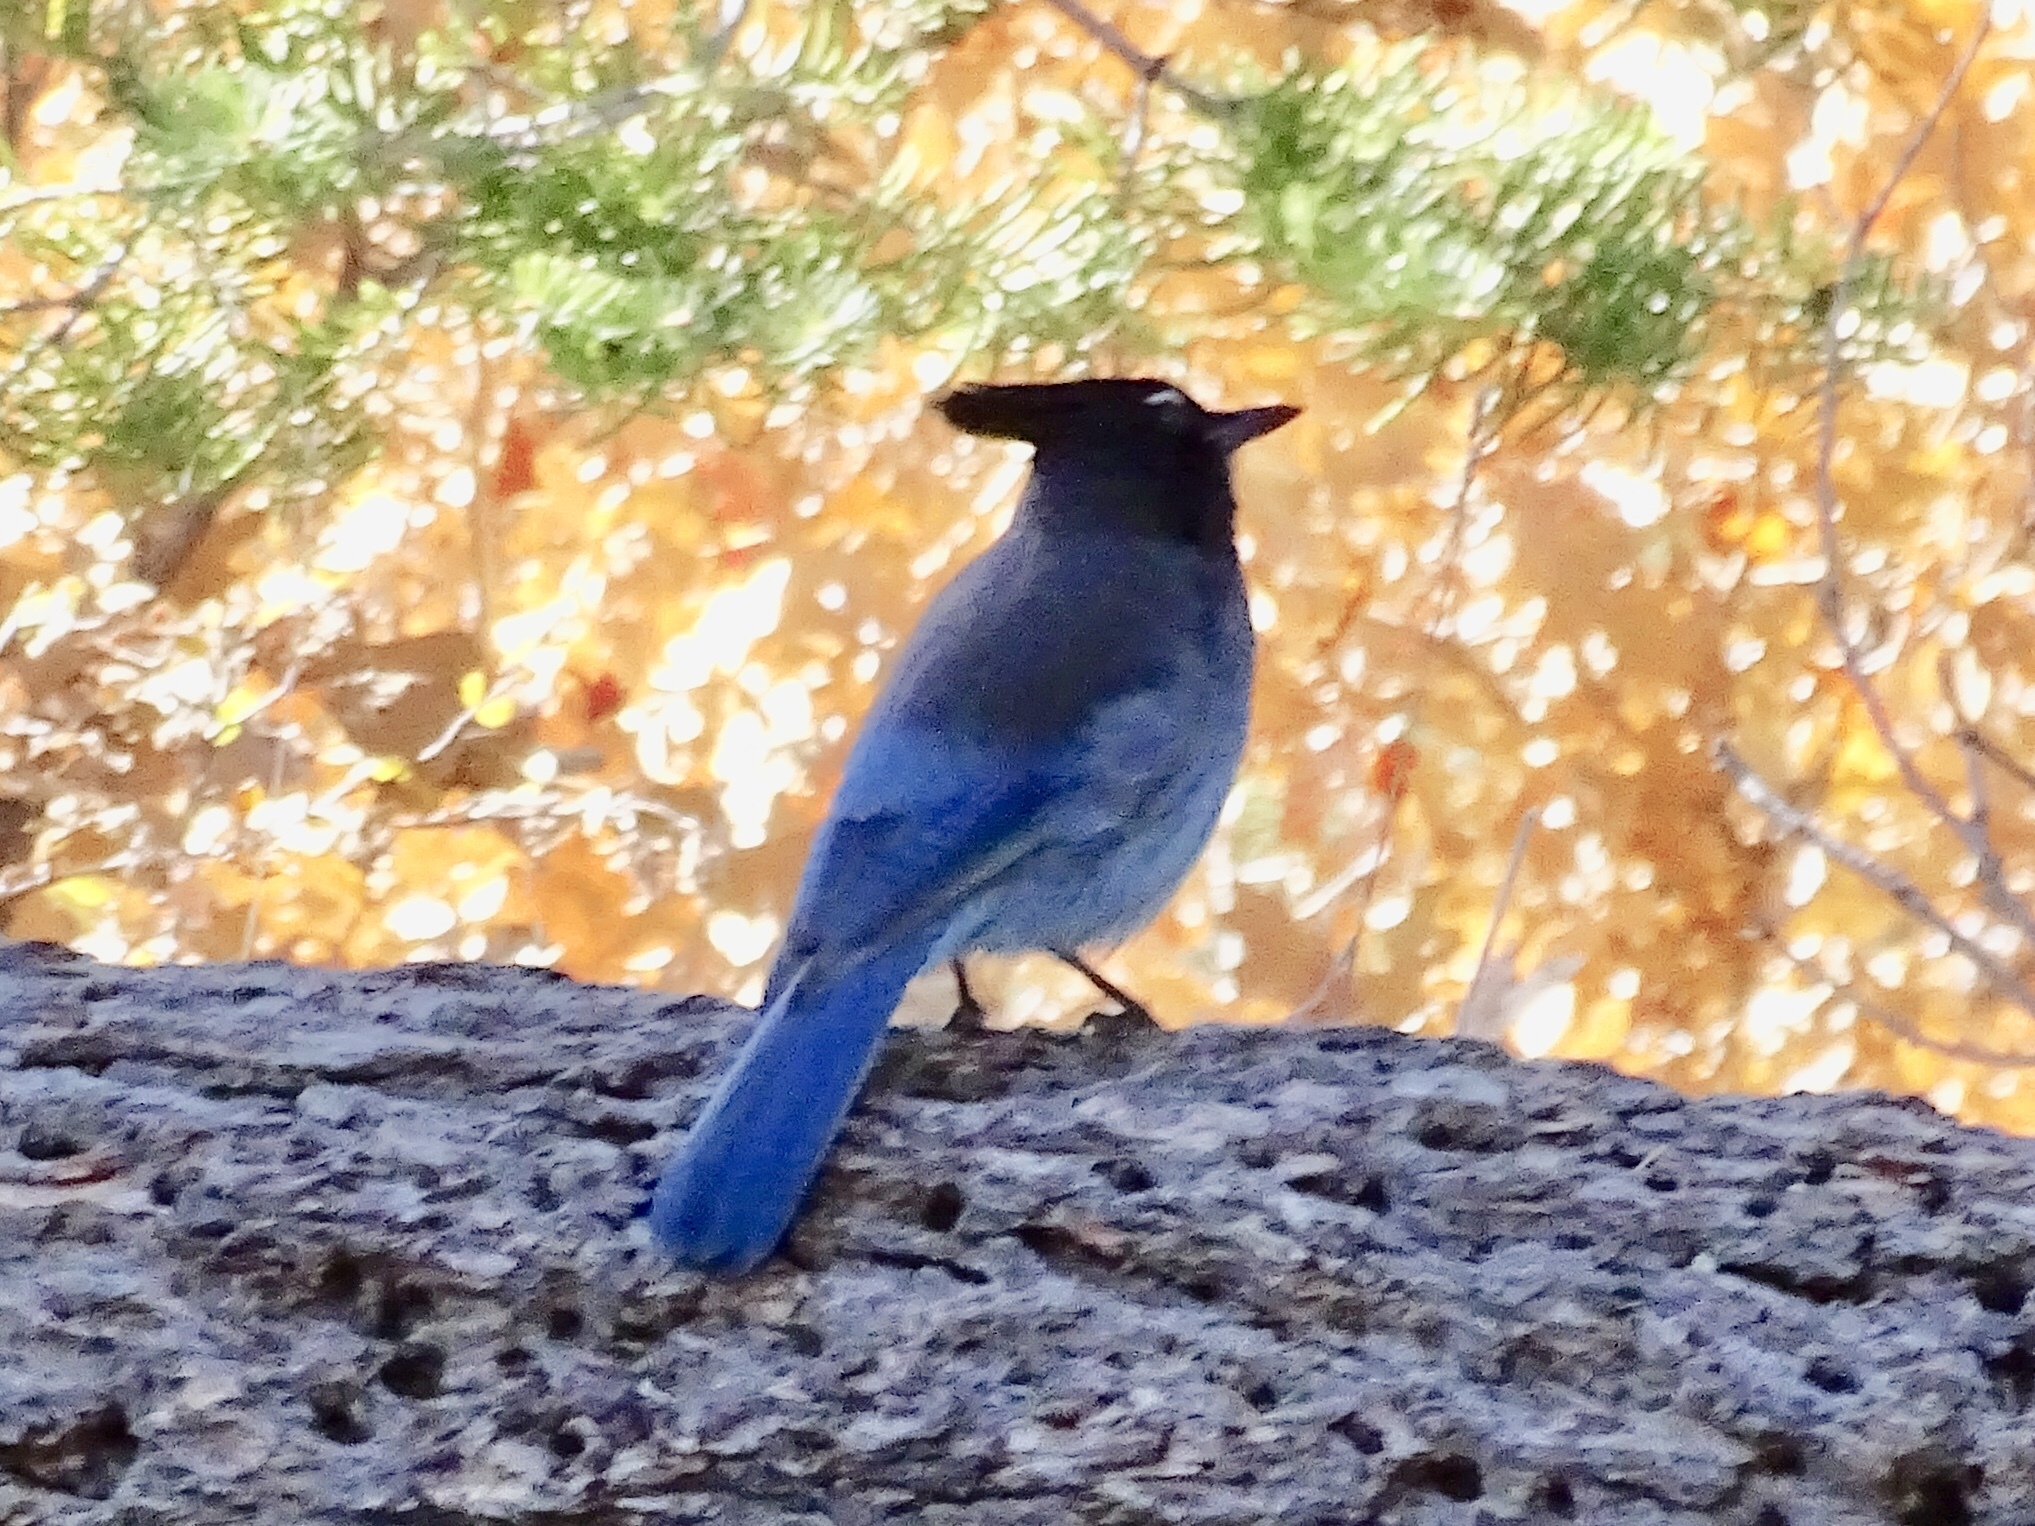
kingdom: Animalia
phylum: Chordata
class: Aves
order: Passeriformes
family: Corvidae
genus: Cyanocitta
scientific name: Cyanocitta stelleri
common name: Steller's jay
